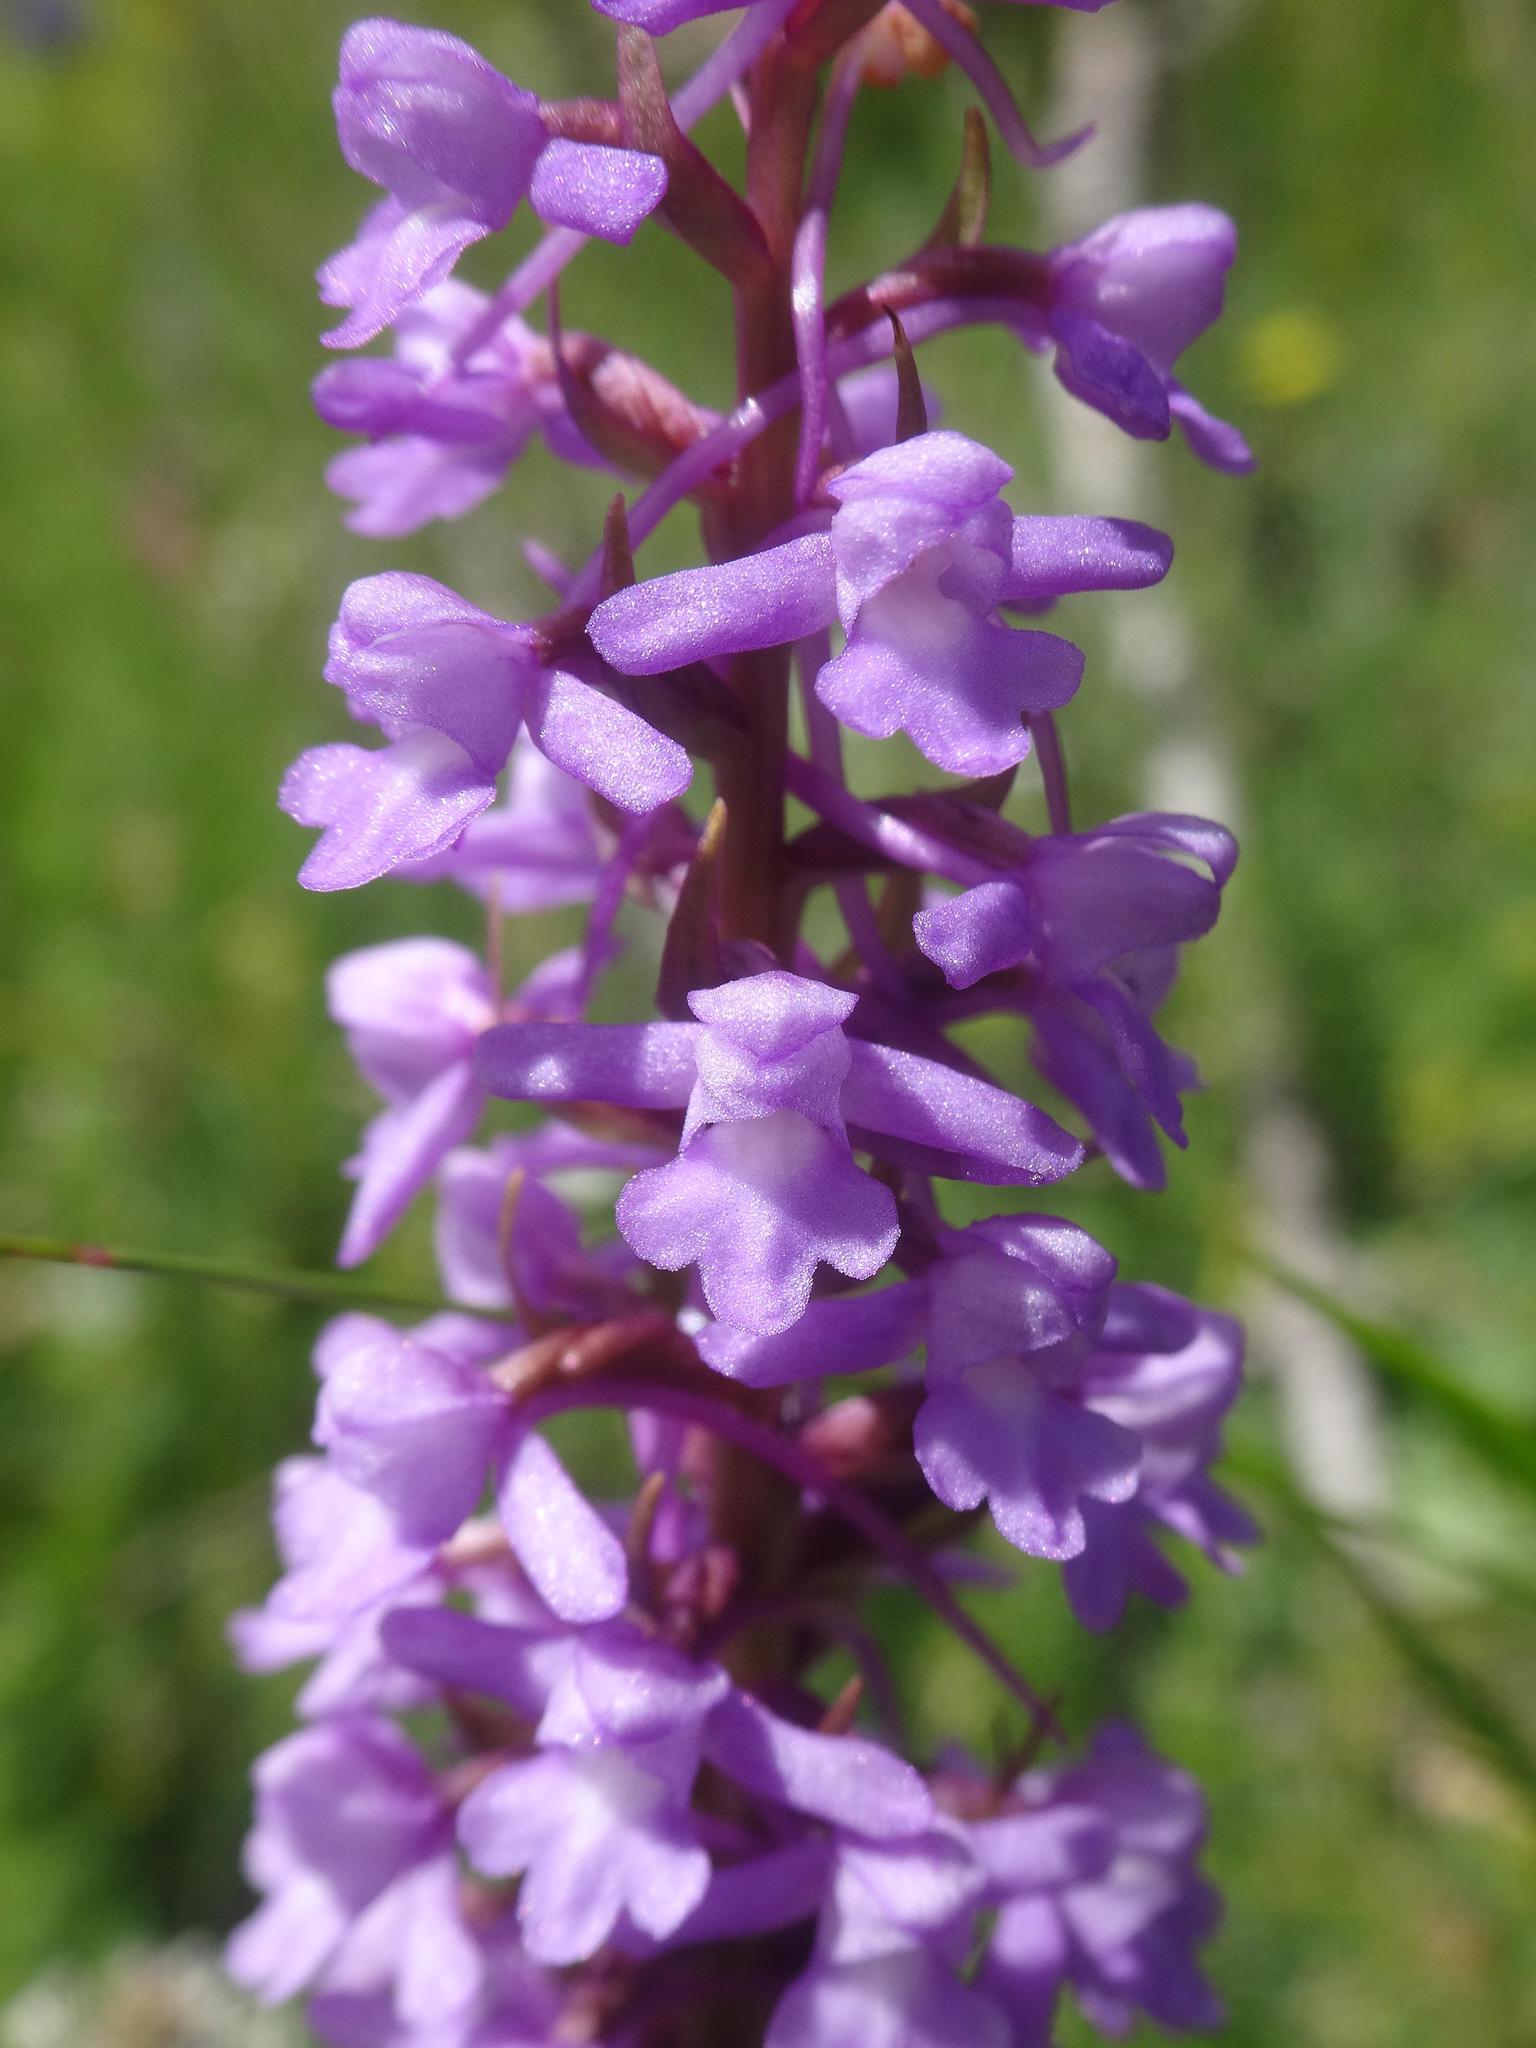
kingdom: Plantae
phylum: Tracheophyta
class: Liliopsida
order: Asparagales
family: Orchidaceae
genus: Gymnadenia
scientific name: Gymnadenia conopsea
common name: Fragrant orchid
